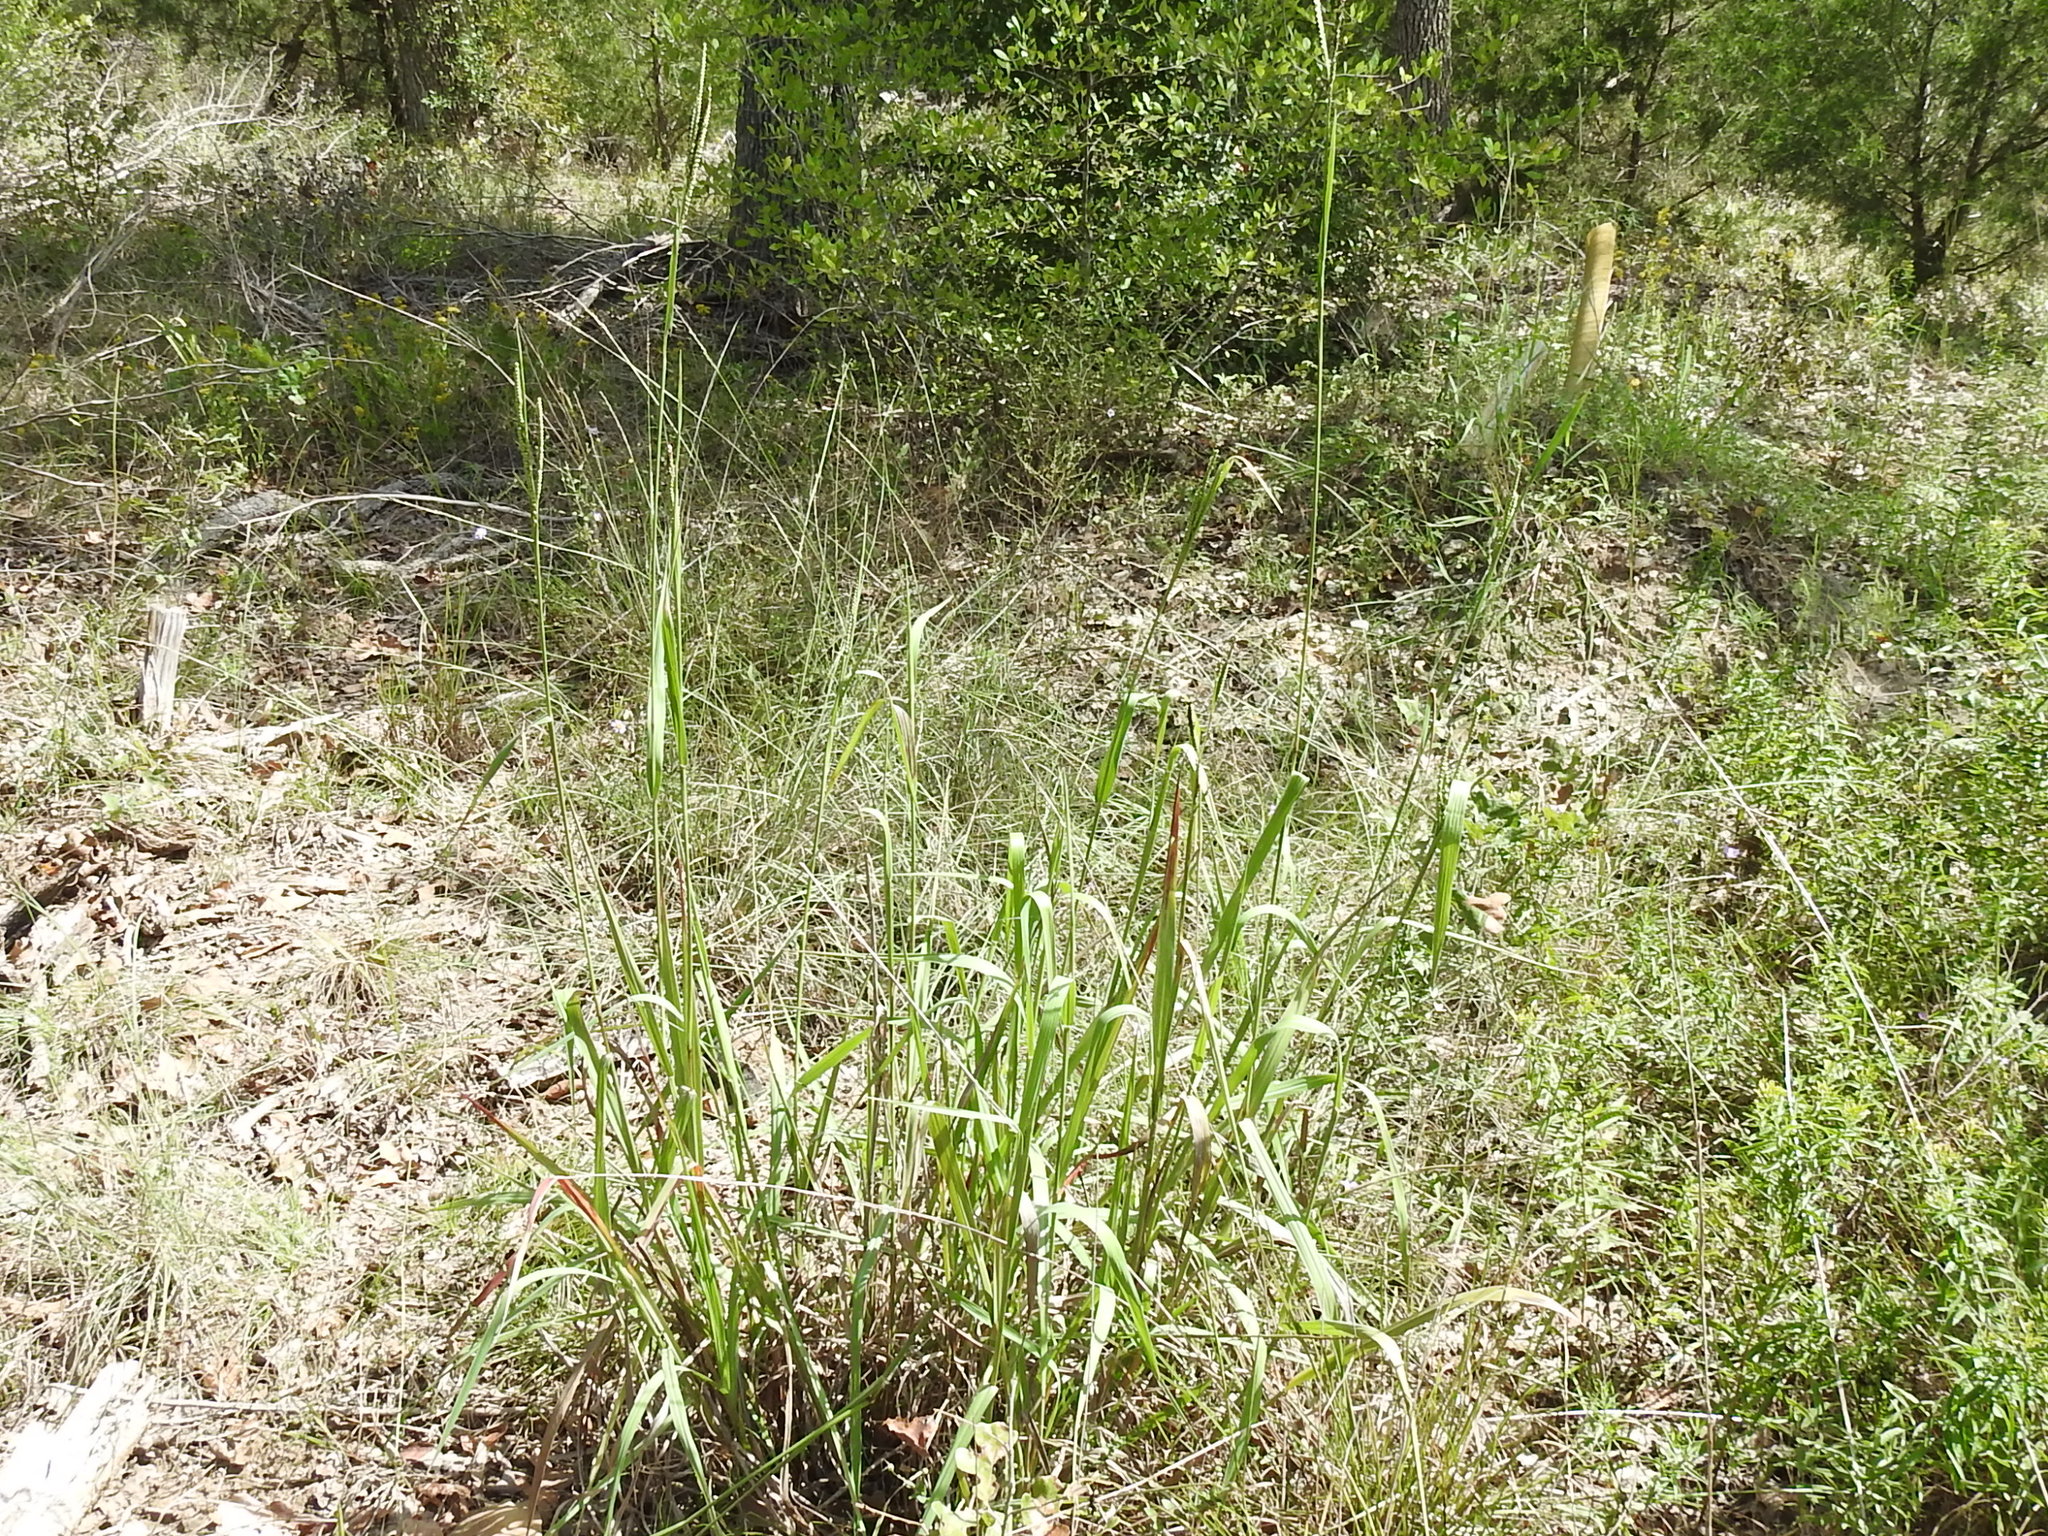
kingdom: Plantae
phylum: Tracheophyta
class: Liliopsida
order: Poales
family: Poaceae
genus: Paspalum
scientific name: Paspalum floridanum
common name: Florida paspalum
